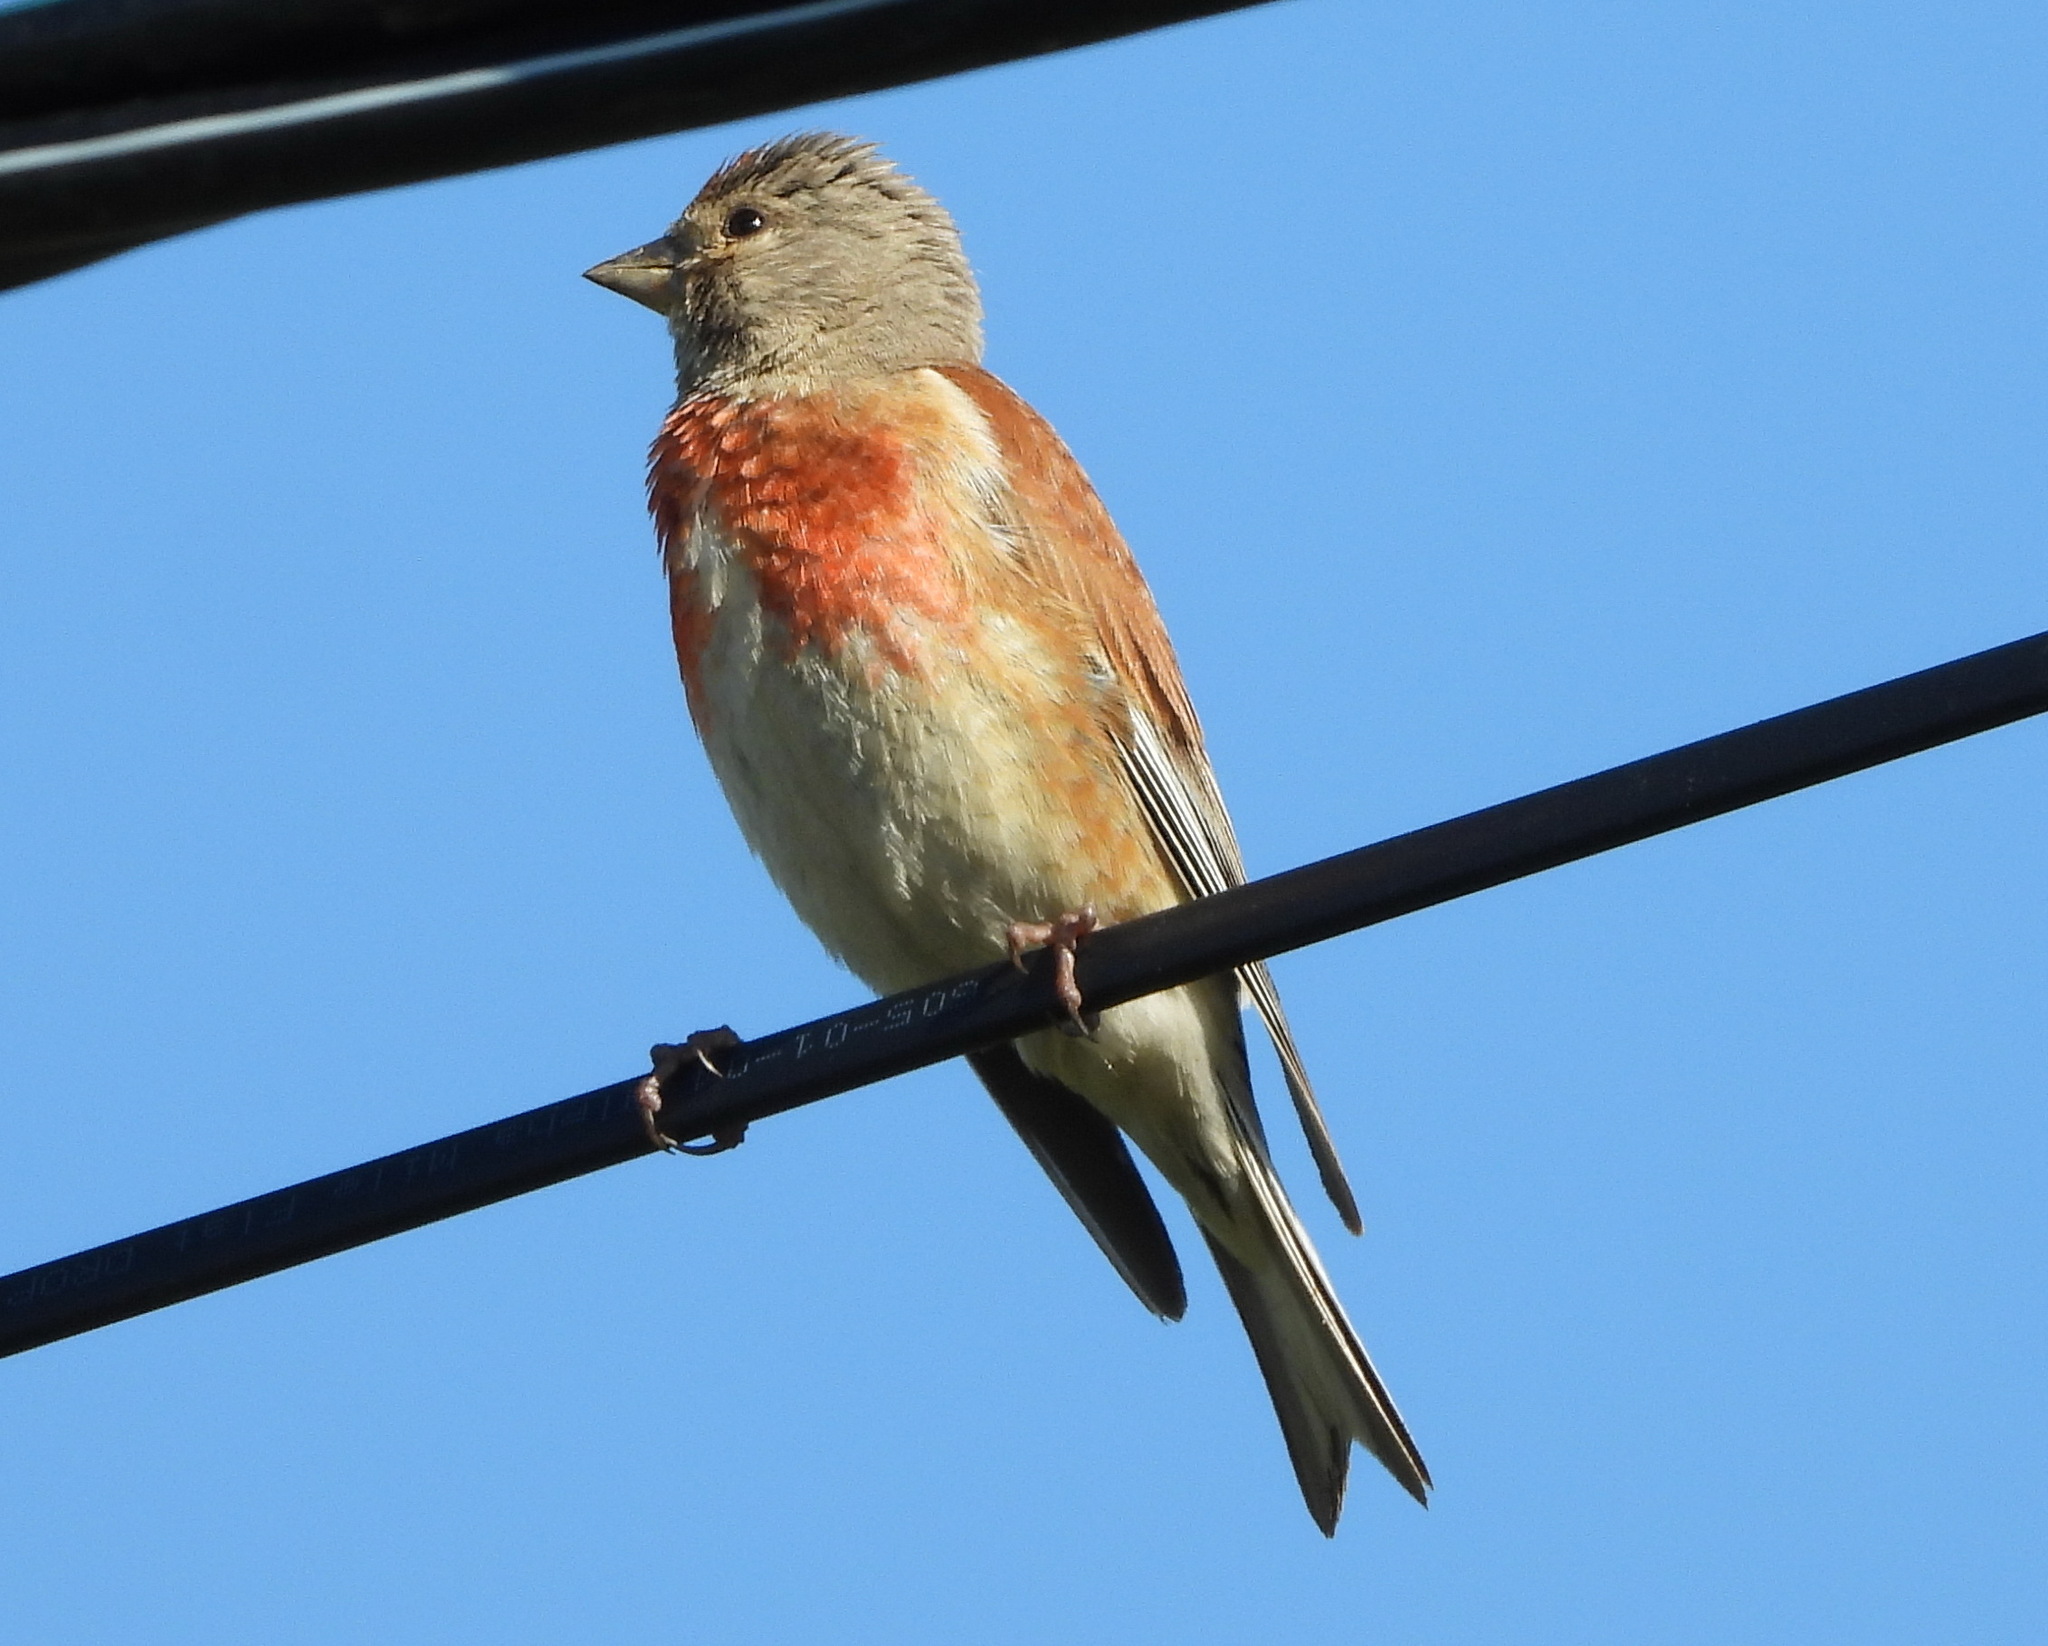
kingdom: Animalia
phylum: Chordata
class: Aves
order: Passeriformes
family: Fringillidae
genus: Linaria
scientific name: Linaria cannabina
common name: Common linnet
